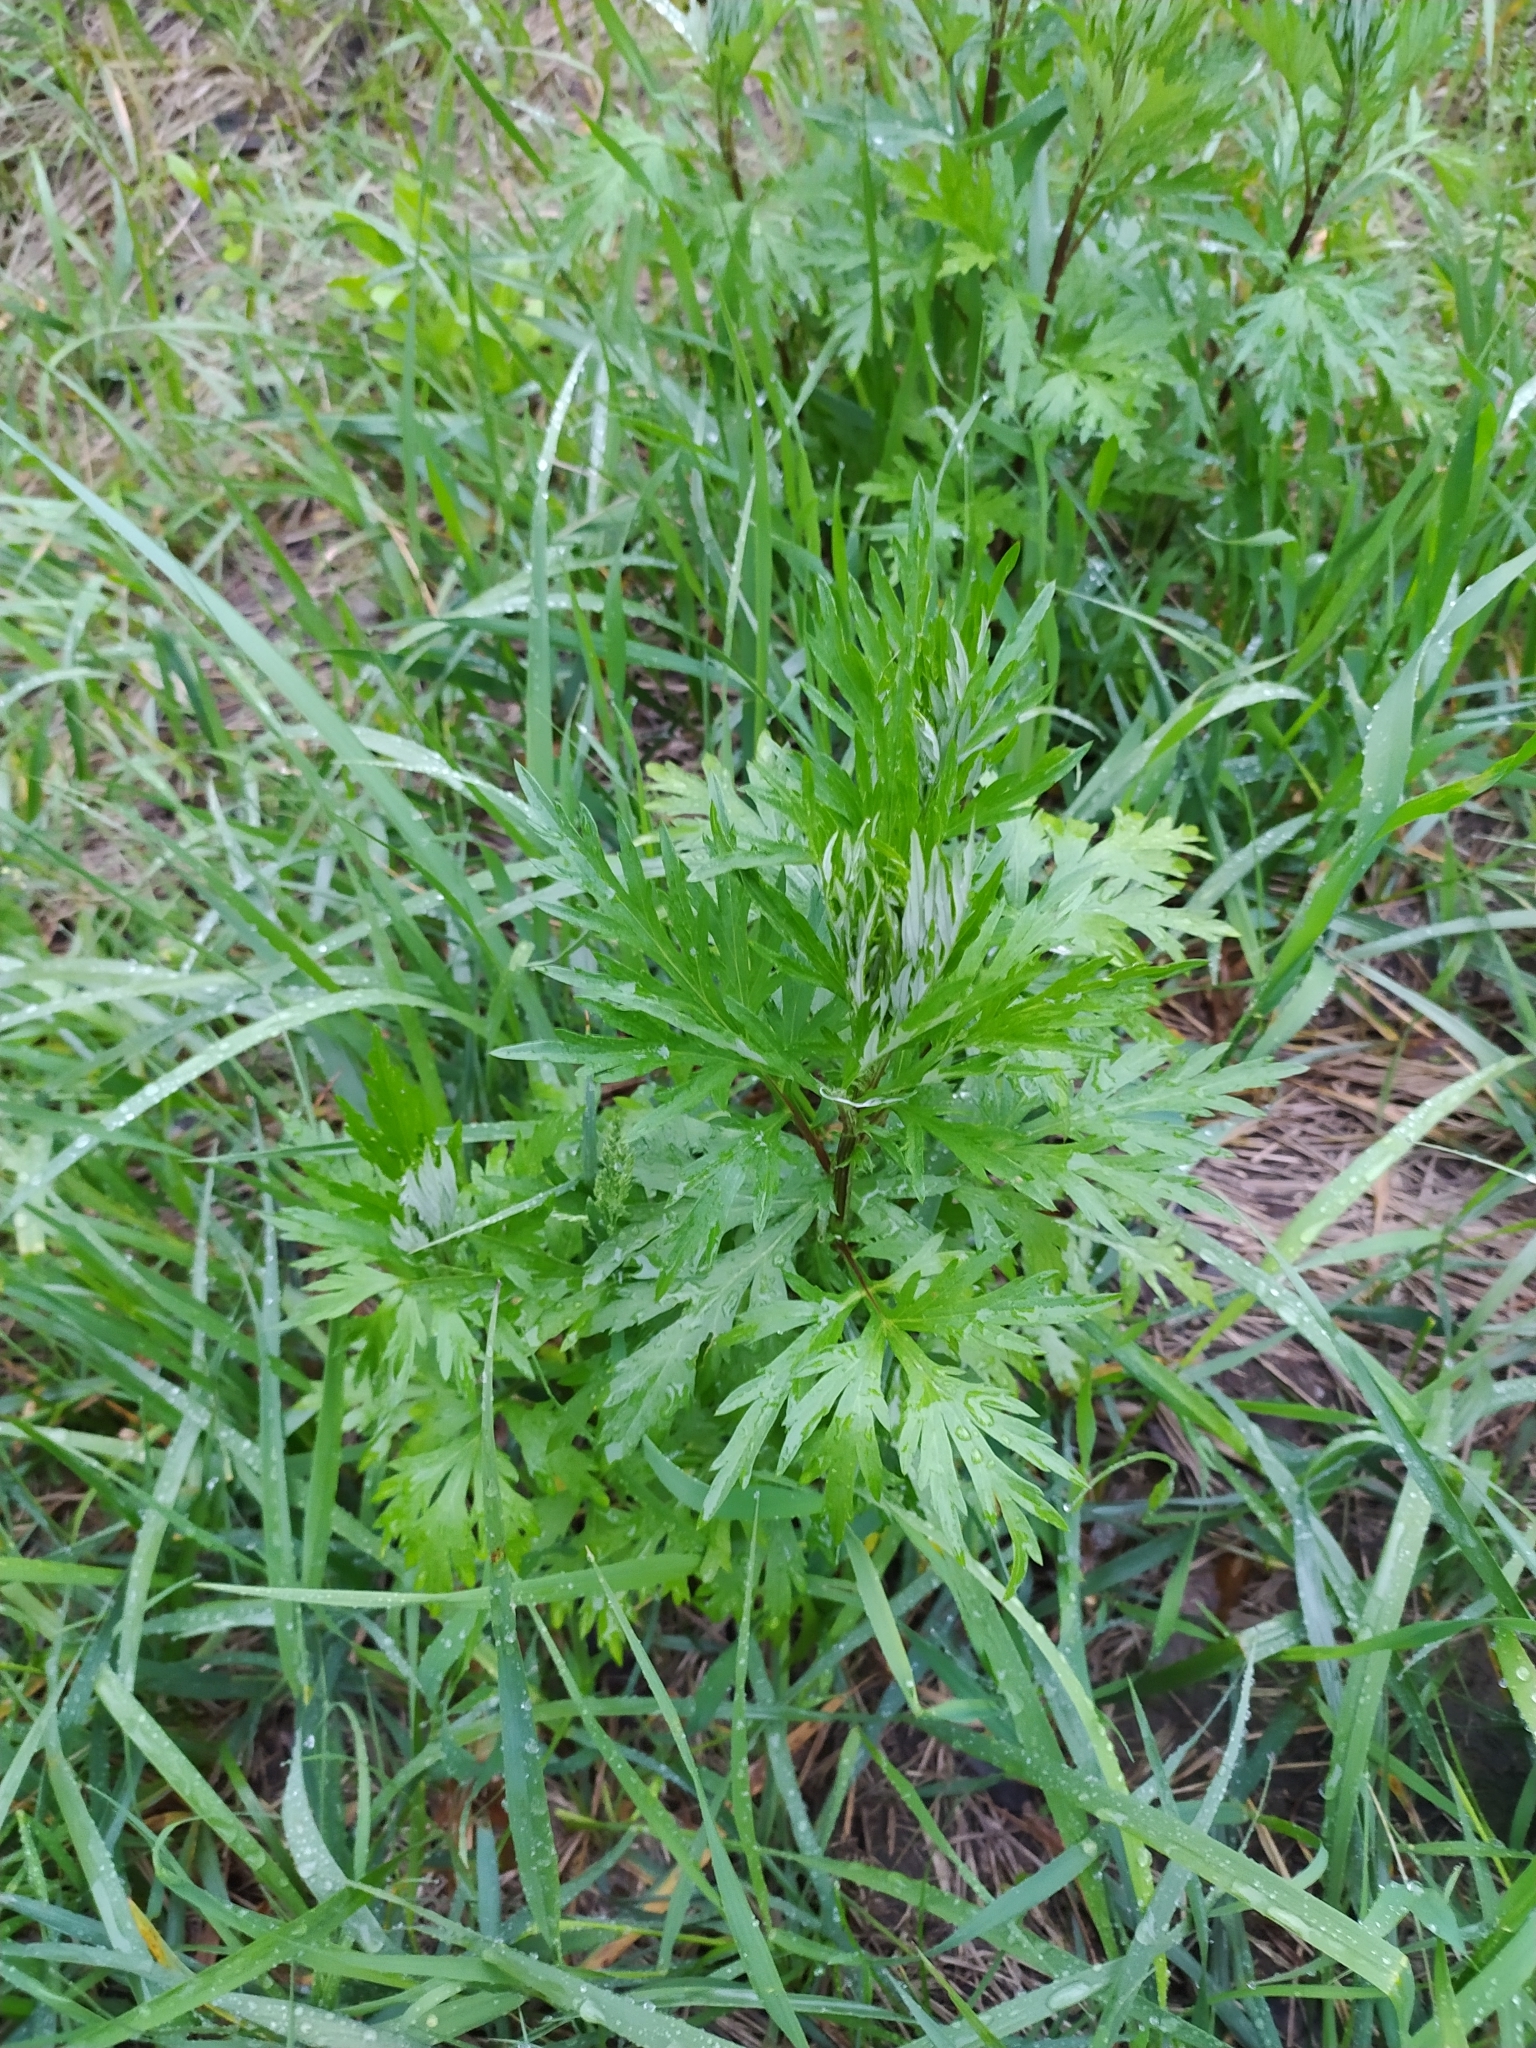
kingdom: Plantae
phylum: Tracheophyta
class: Magnoliopsida
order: Asterales
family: Asteraceae
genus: Artemisia
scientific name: Artemisia vulgaris
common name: Mugwort
